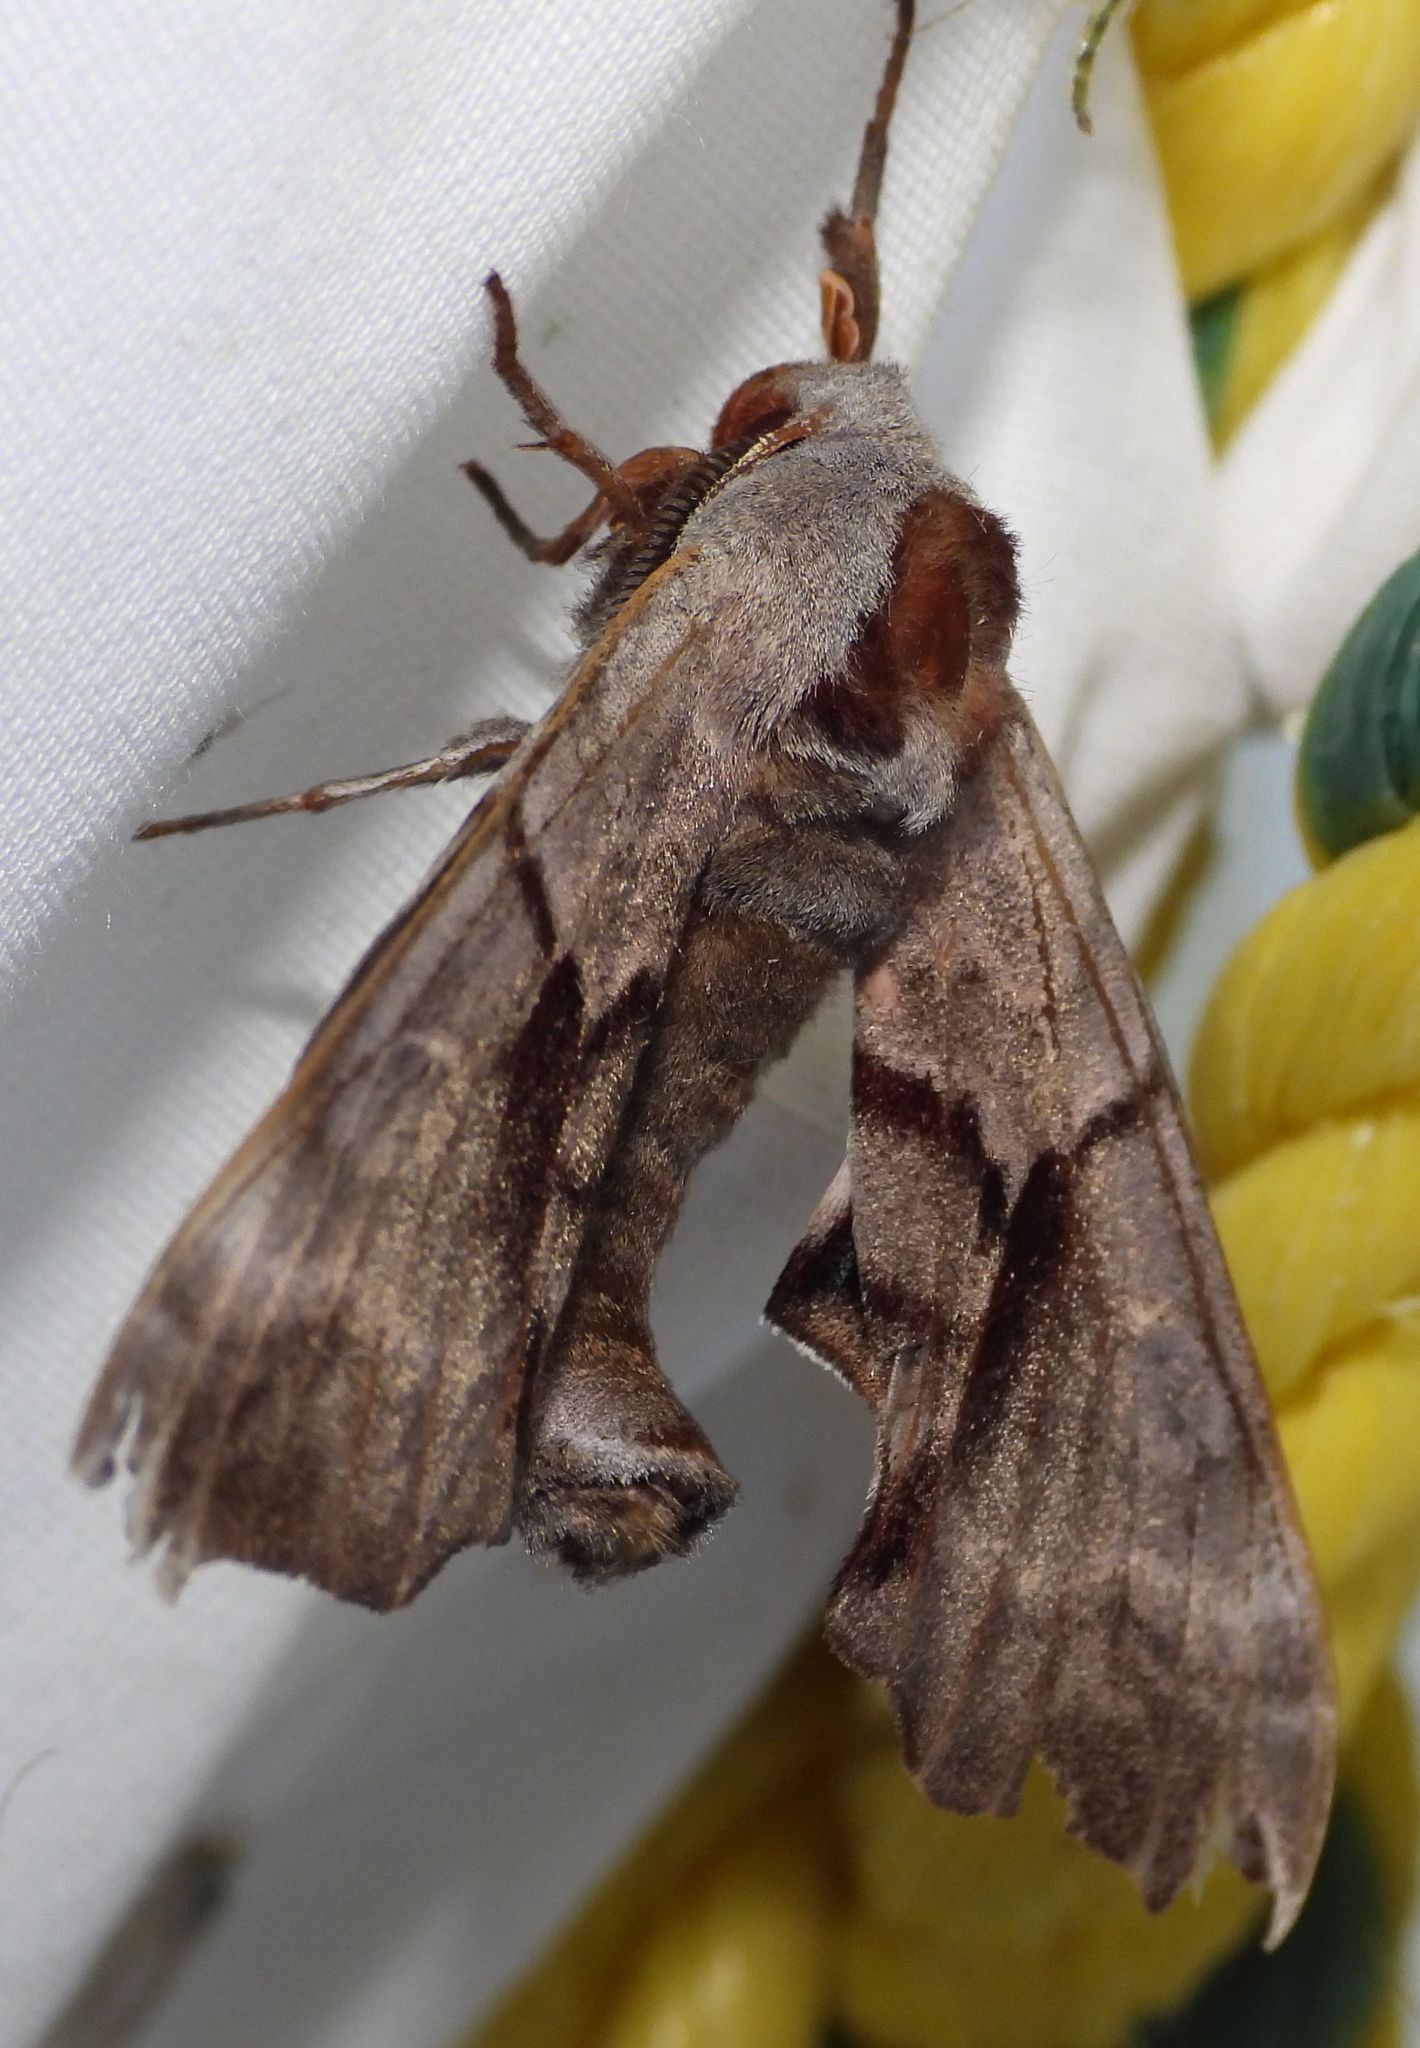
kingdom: Animalia
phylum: Arthropoda
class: Insecta
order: Lepidoptera
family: Sphingidae
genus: Smerinthus
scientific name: Smerinthus jamaicensis
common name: Twin spotted sphinx
